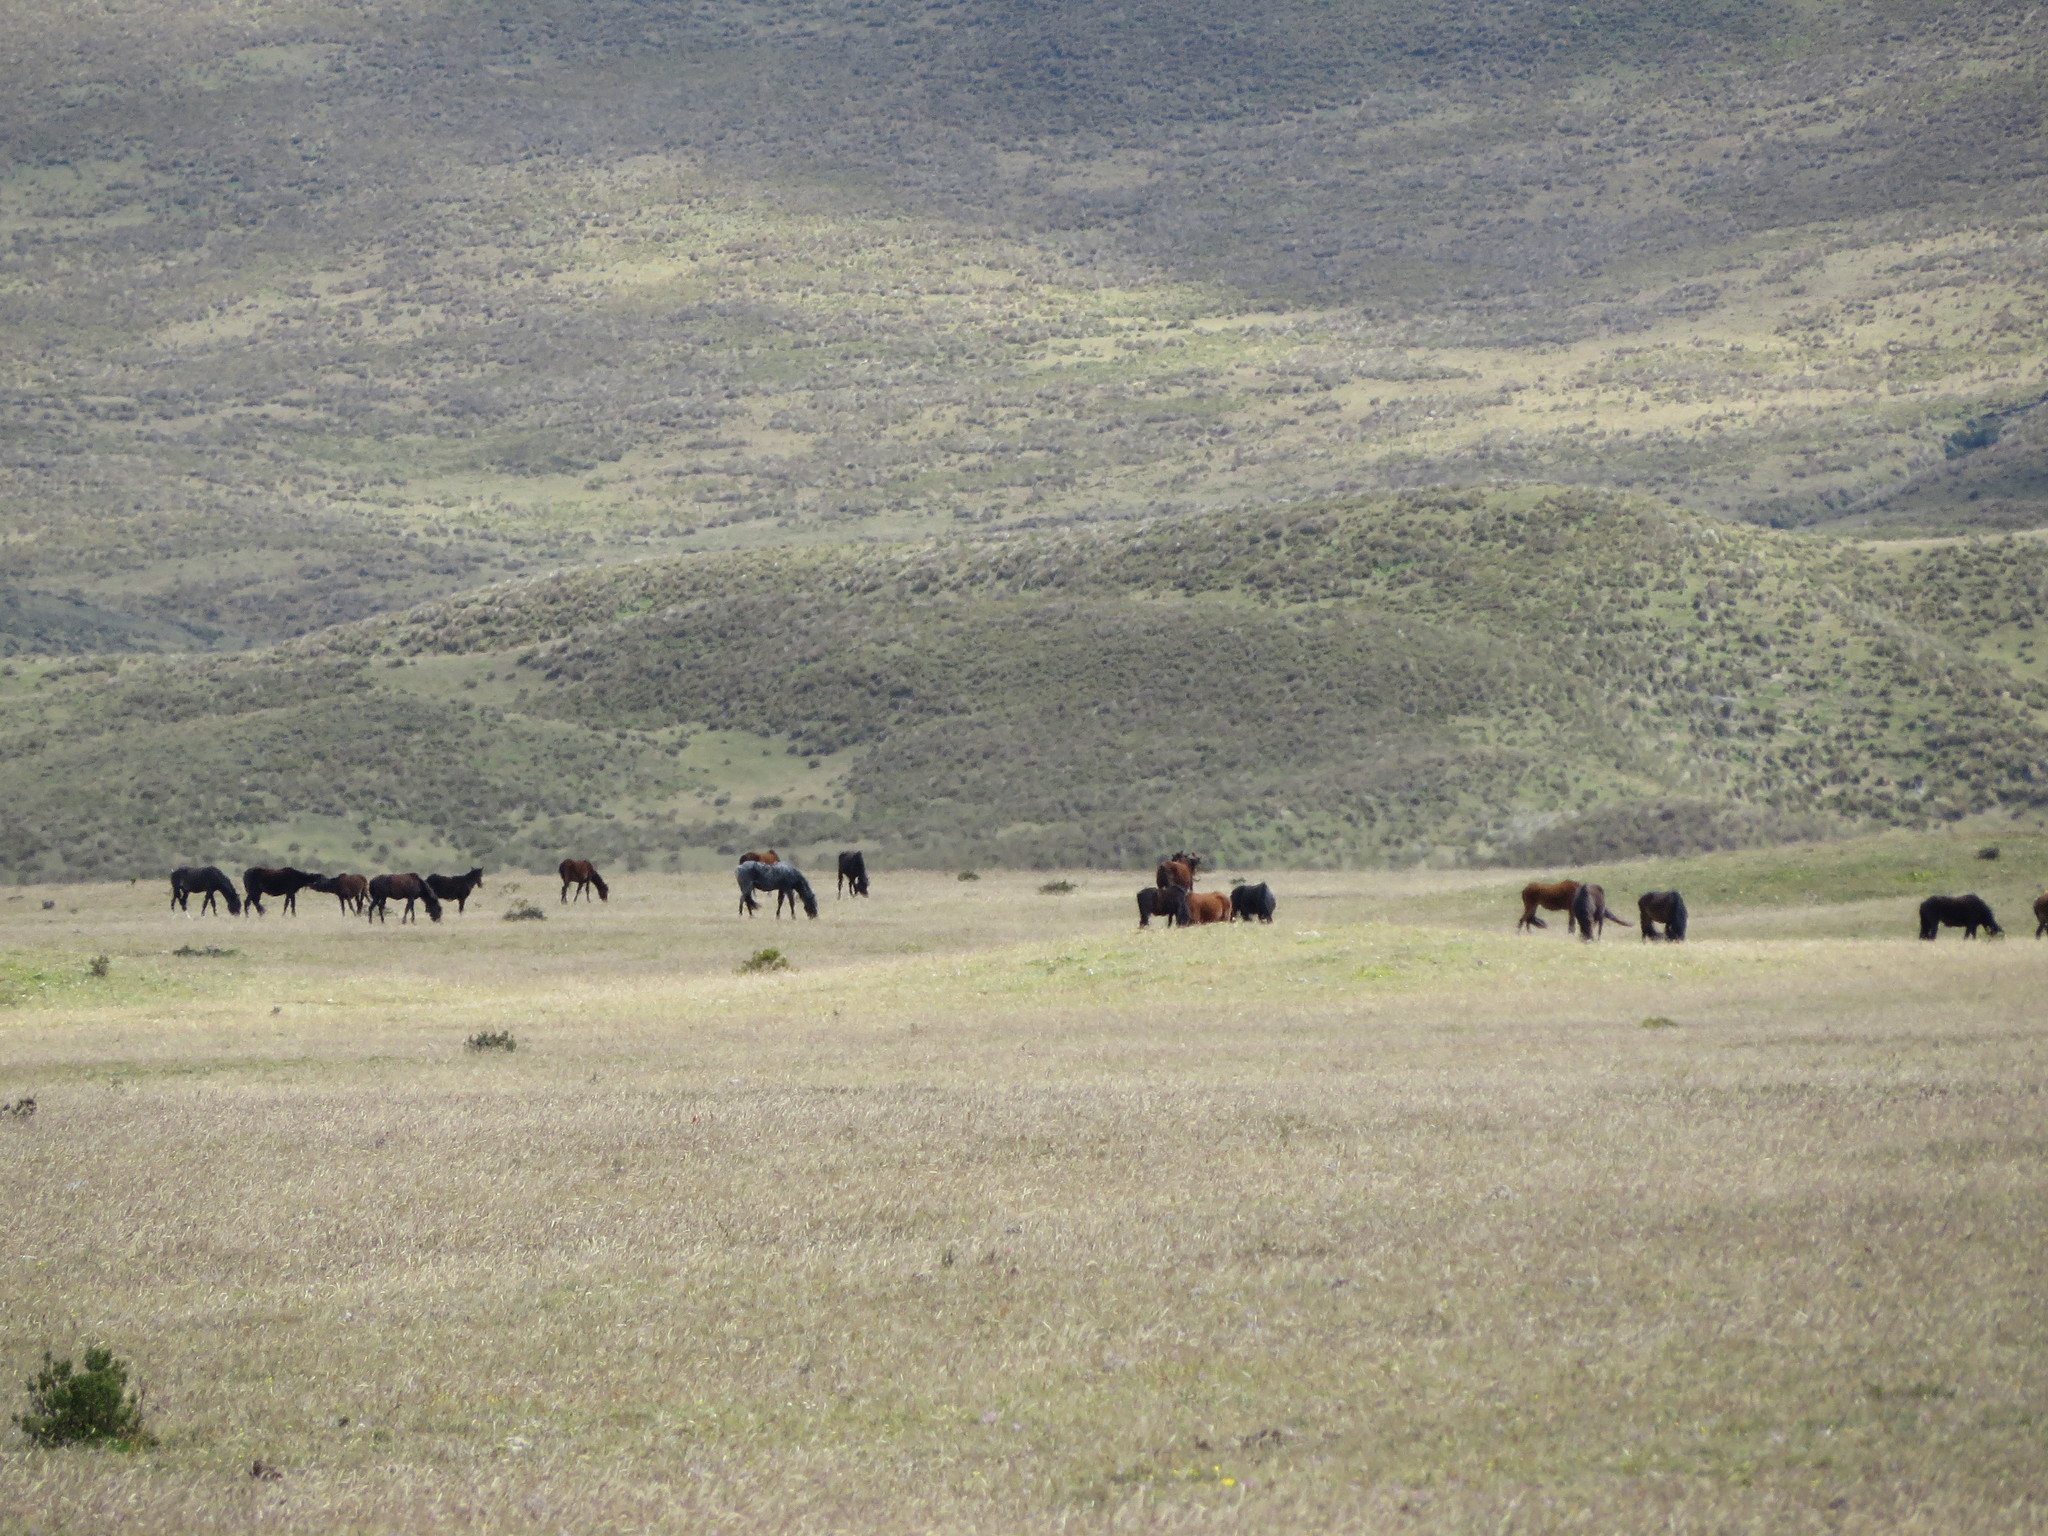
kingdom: Animalia
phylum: Chordata
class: Mammalia
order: Perissodactyla
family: Equidae
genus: Equus
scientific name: Equus caballus
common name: Horse
